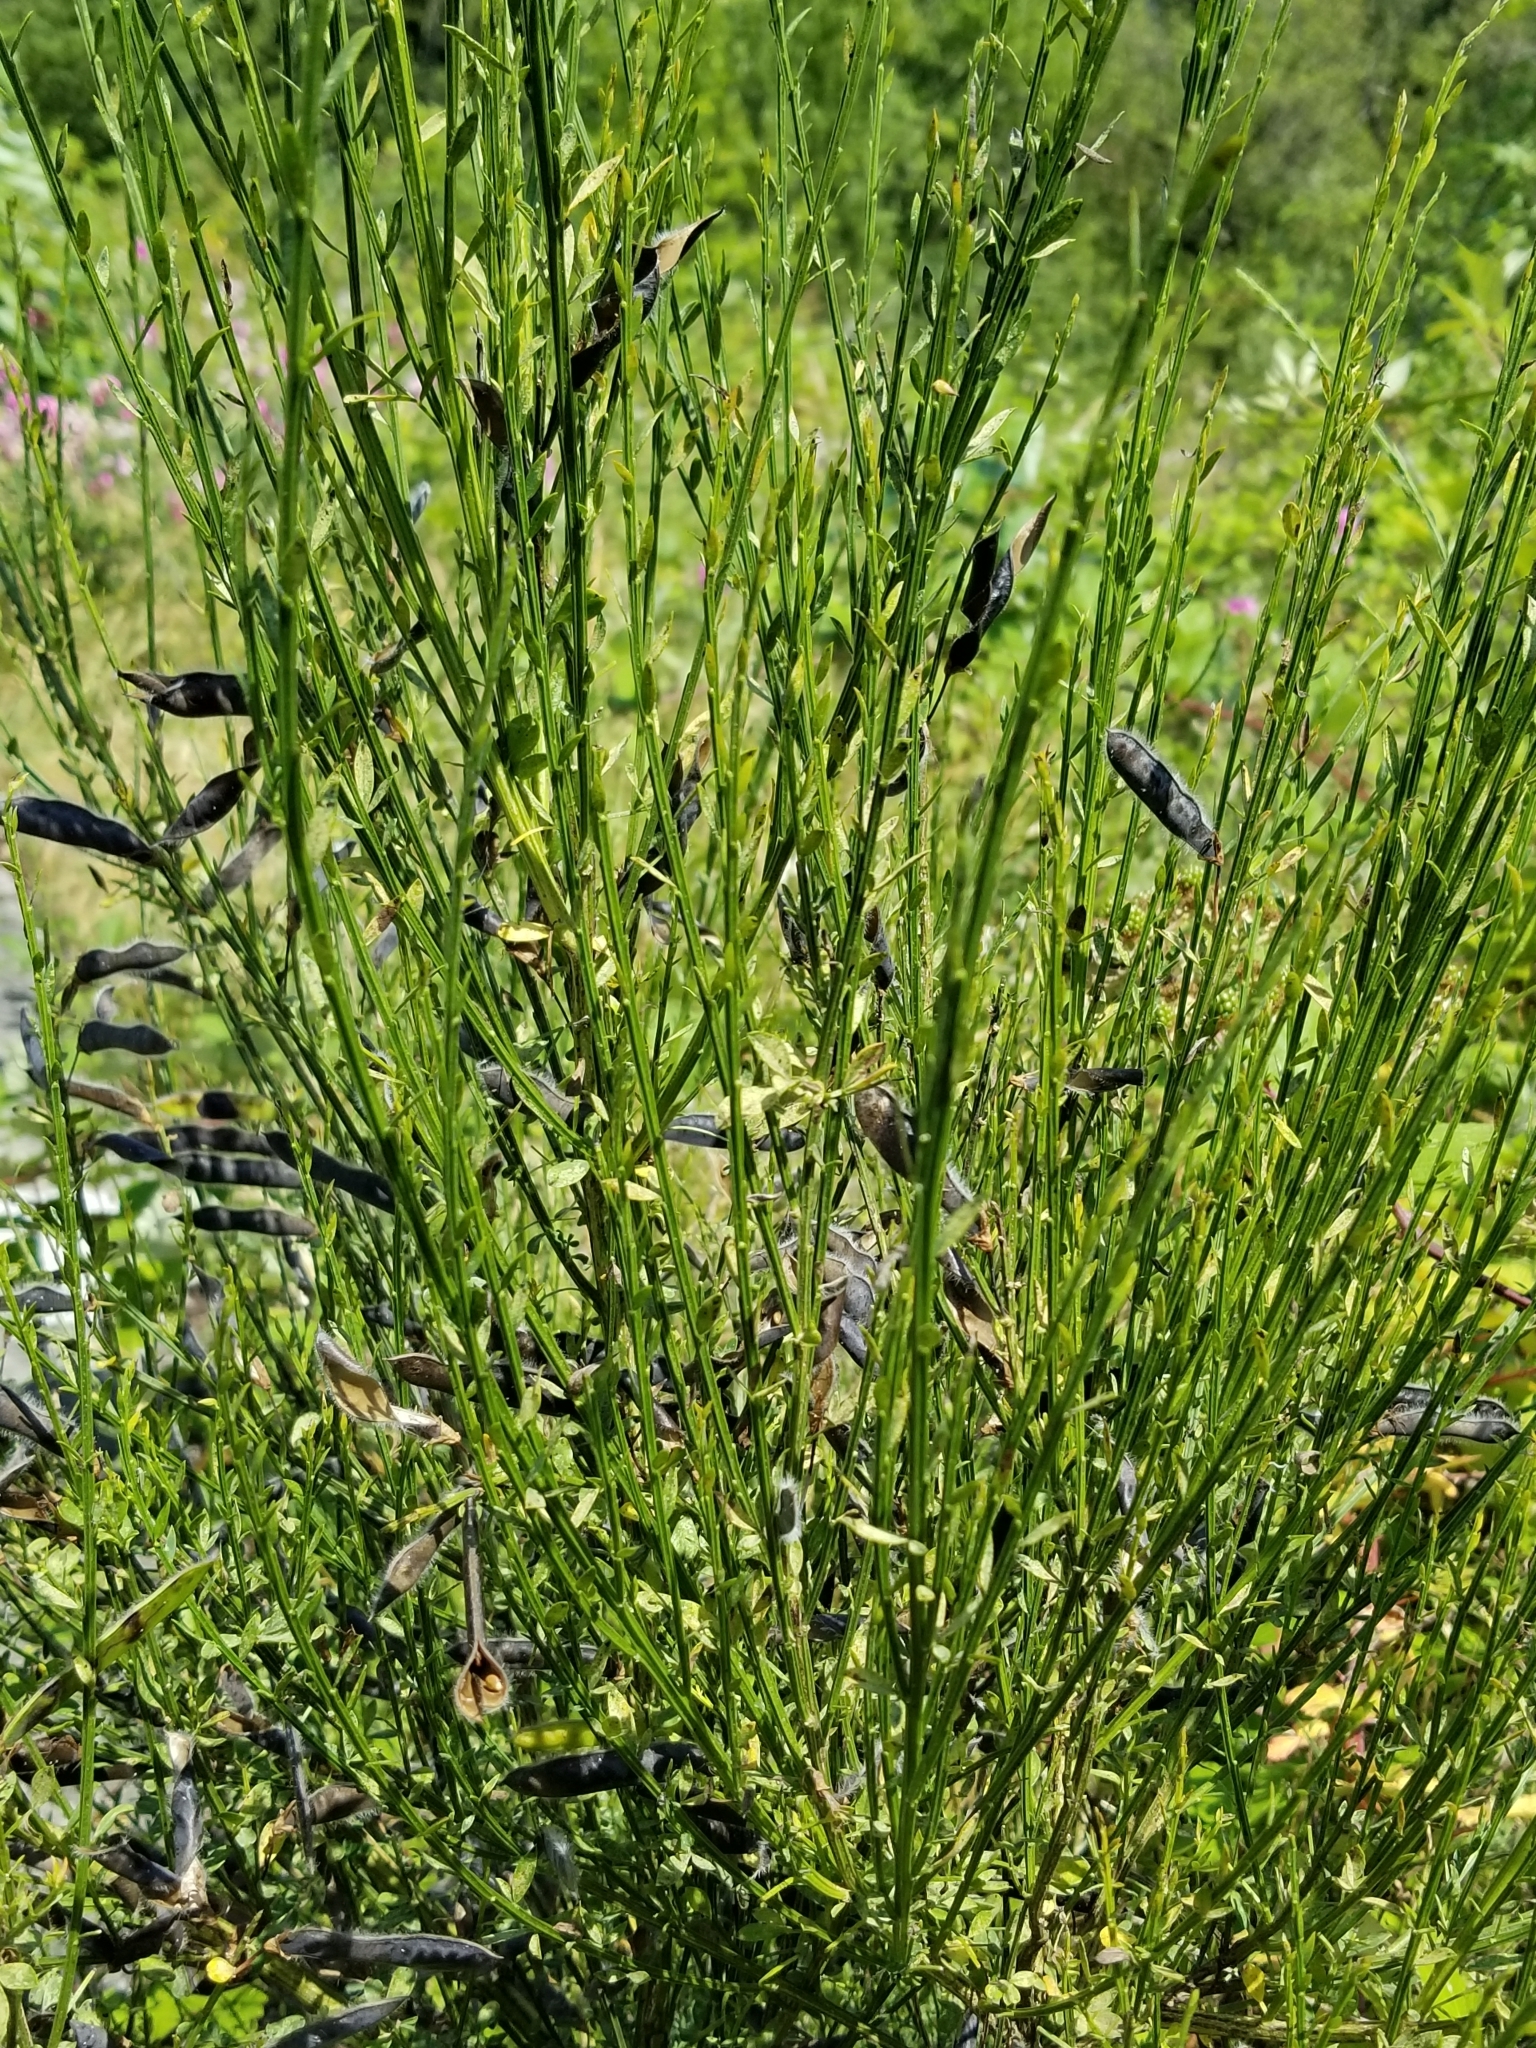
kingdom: Plantae
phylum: Tracheophyta
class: Magnoliopsida
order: Fabales
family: Fabaceae
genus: Cytisus
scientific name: Cytisus scoparius
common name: Scotch broom
